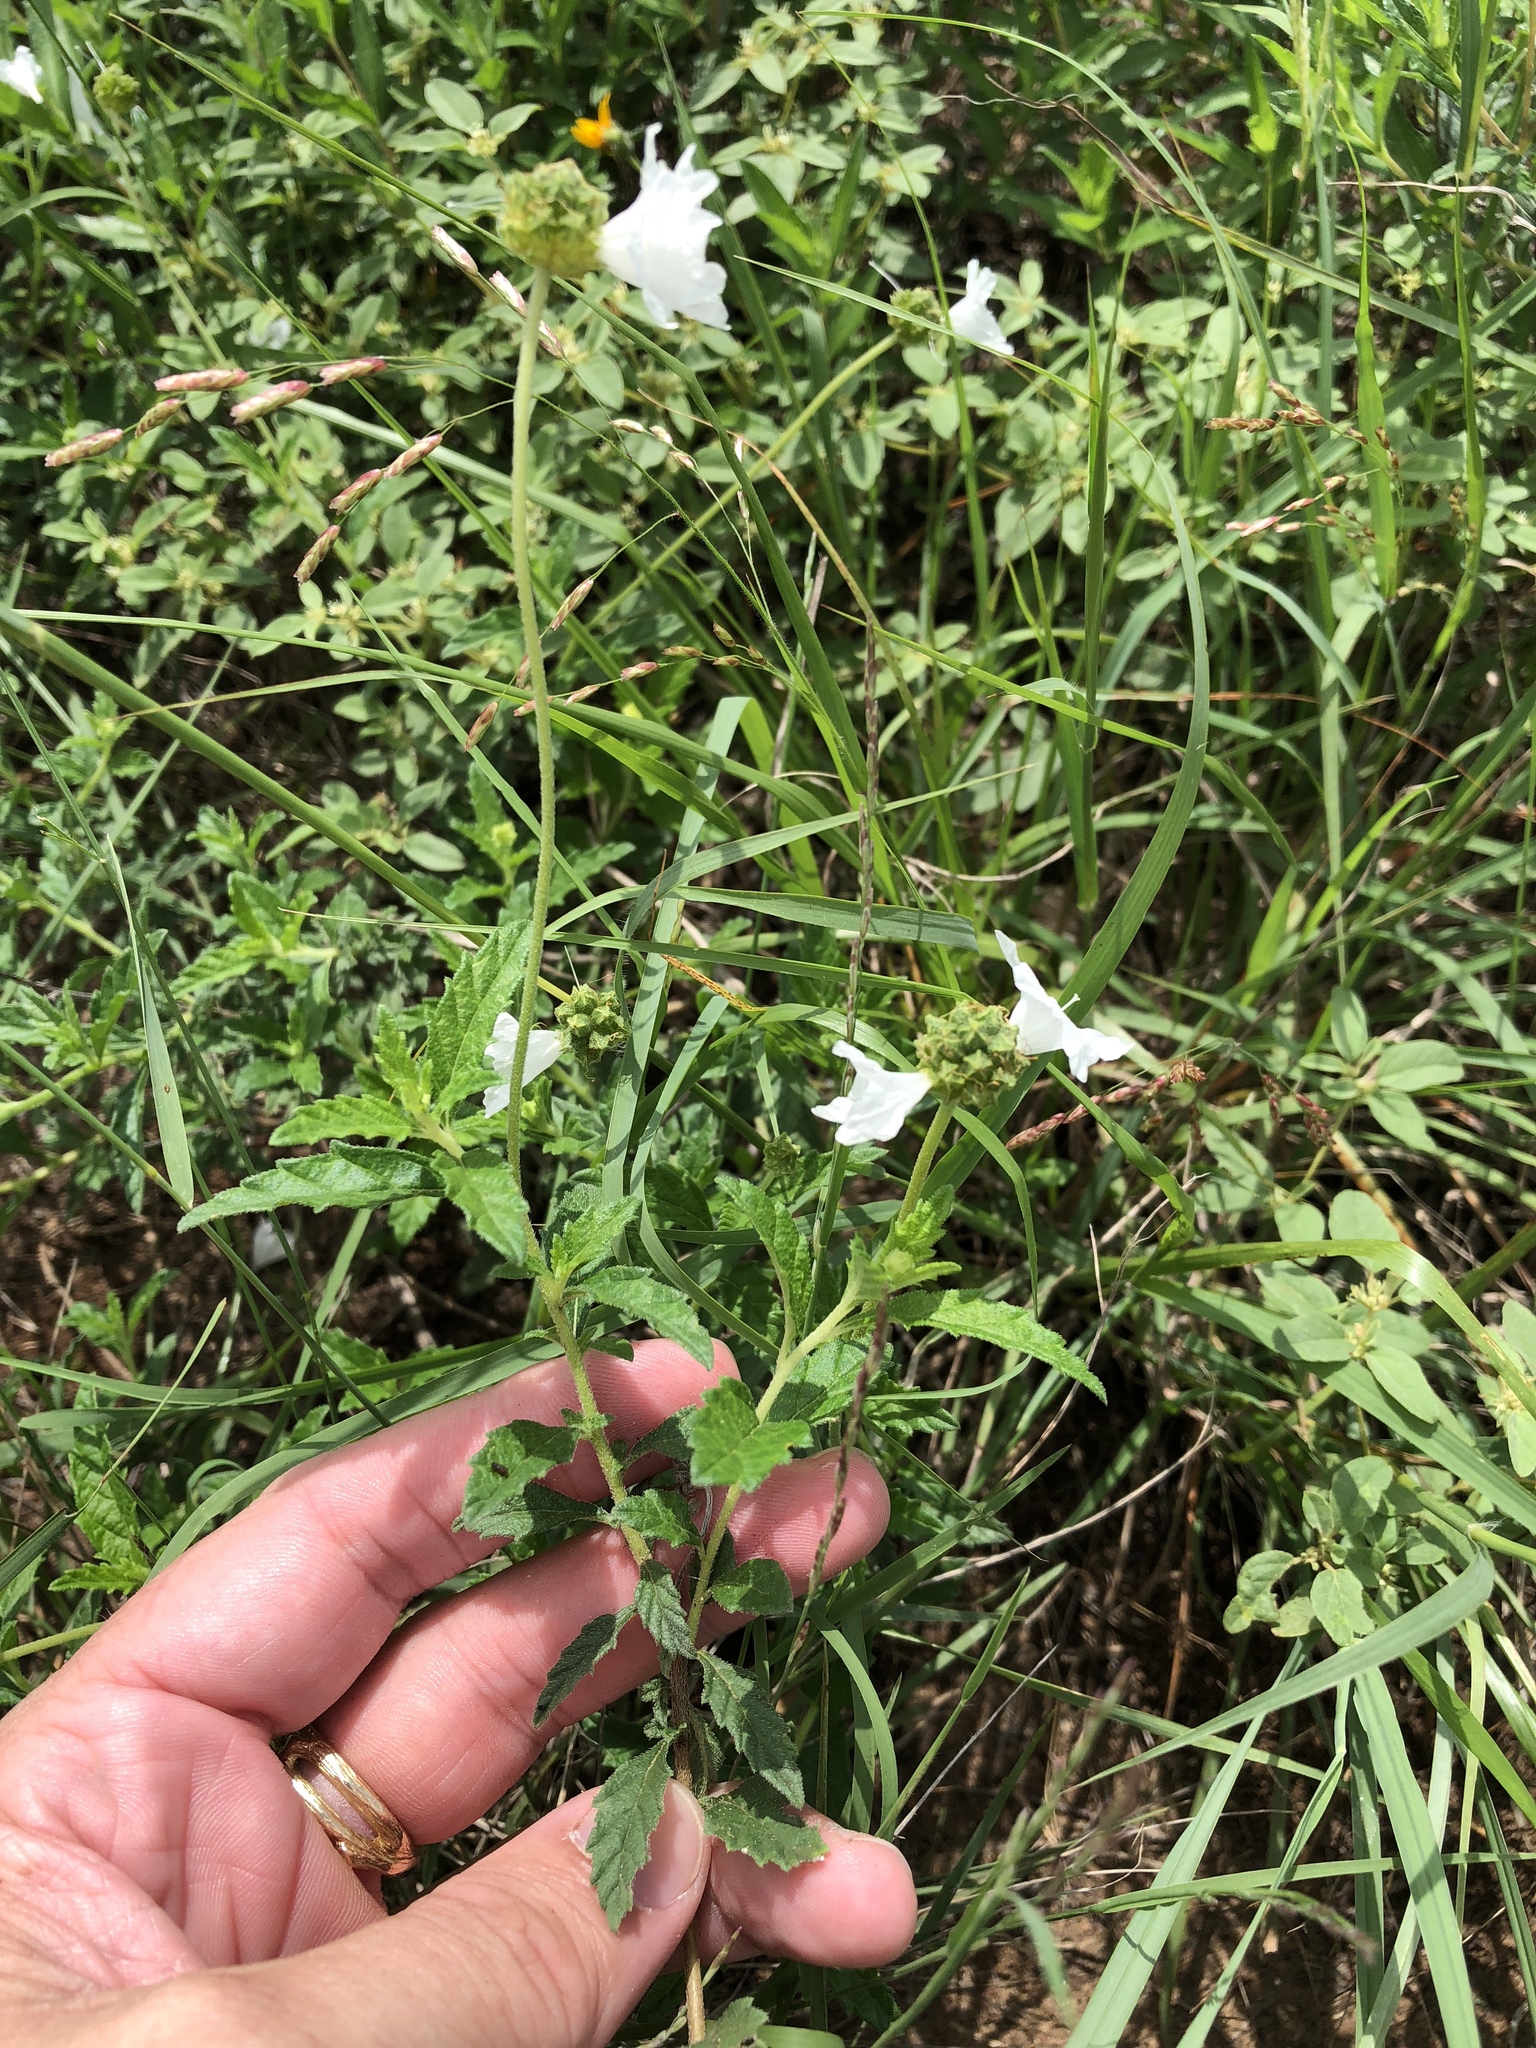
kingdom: Plantae
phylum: Tracheophyta
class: Magnoliopsida
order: Boraginales
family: Cordiaceae
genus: Varronia
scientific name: Varronia podocephala
